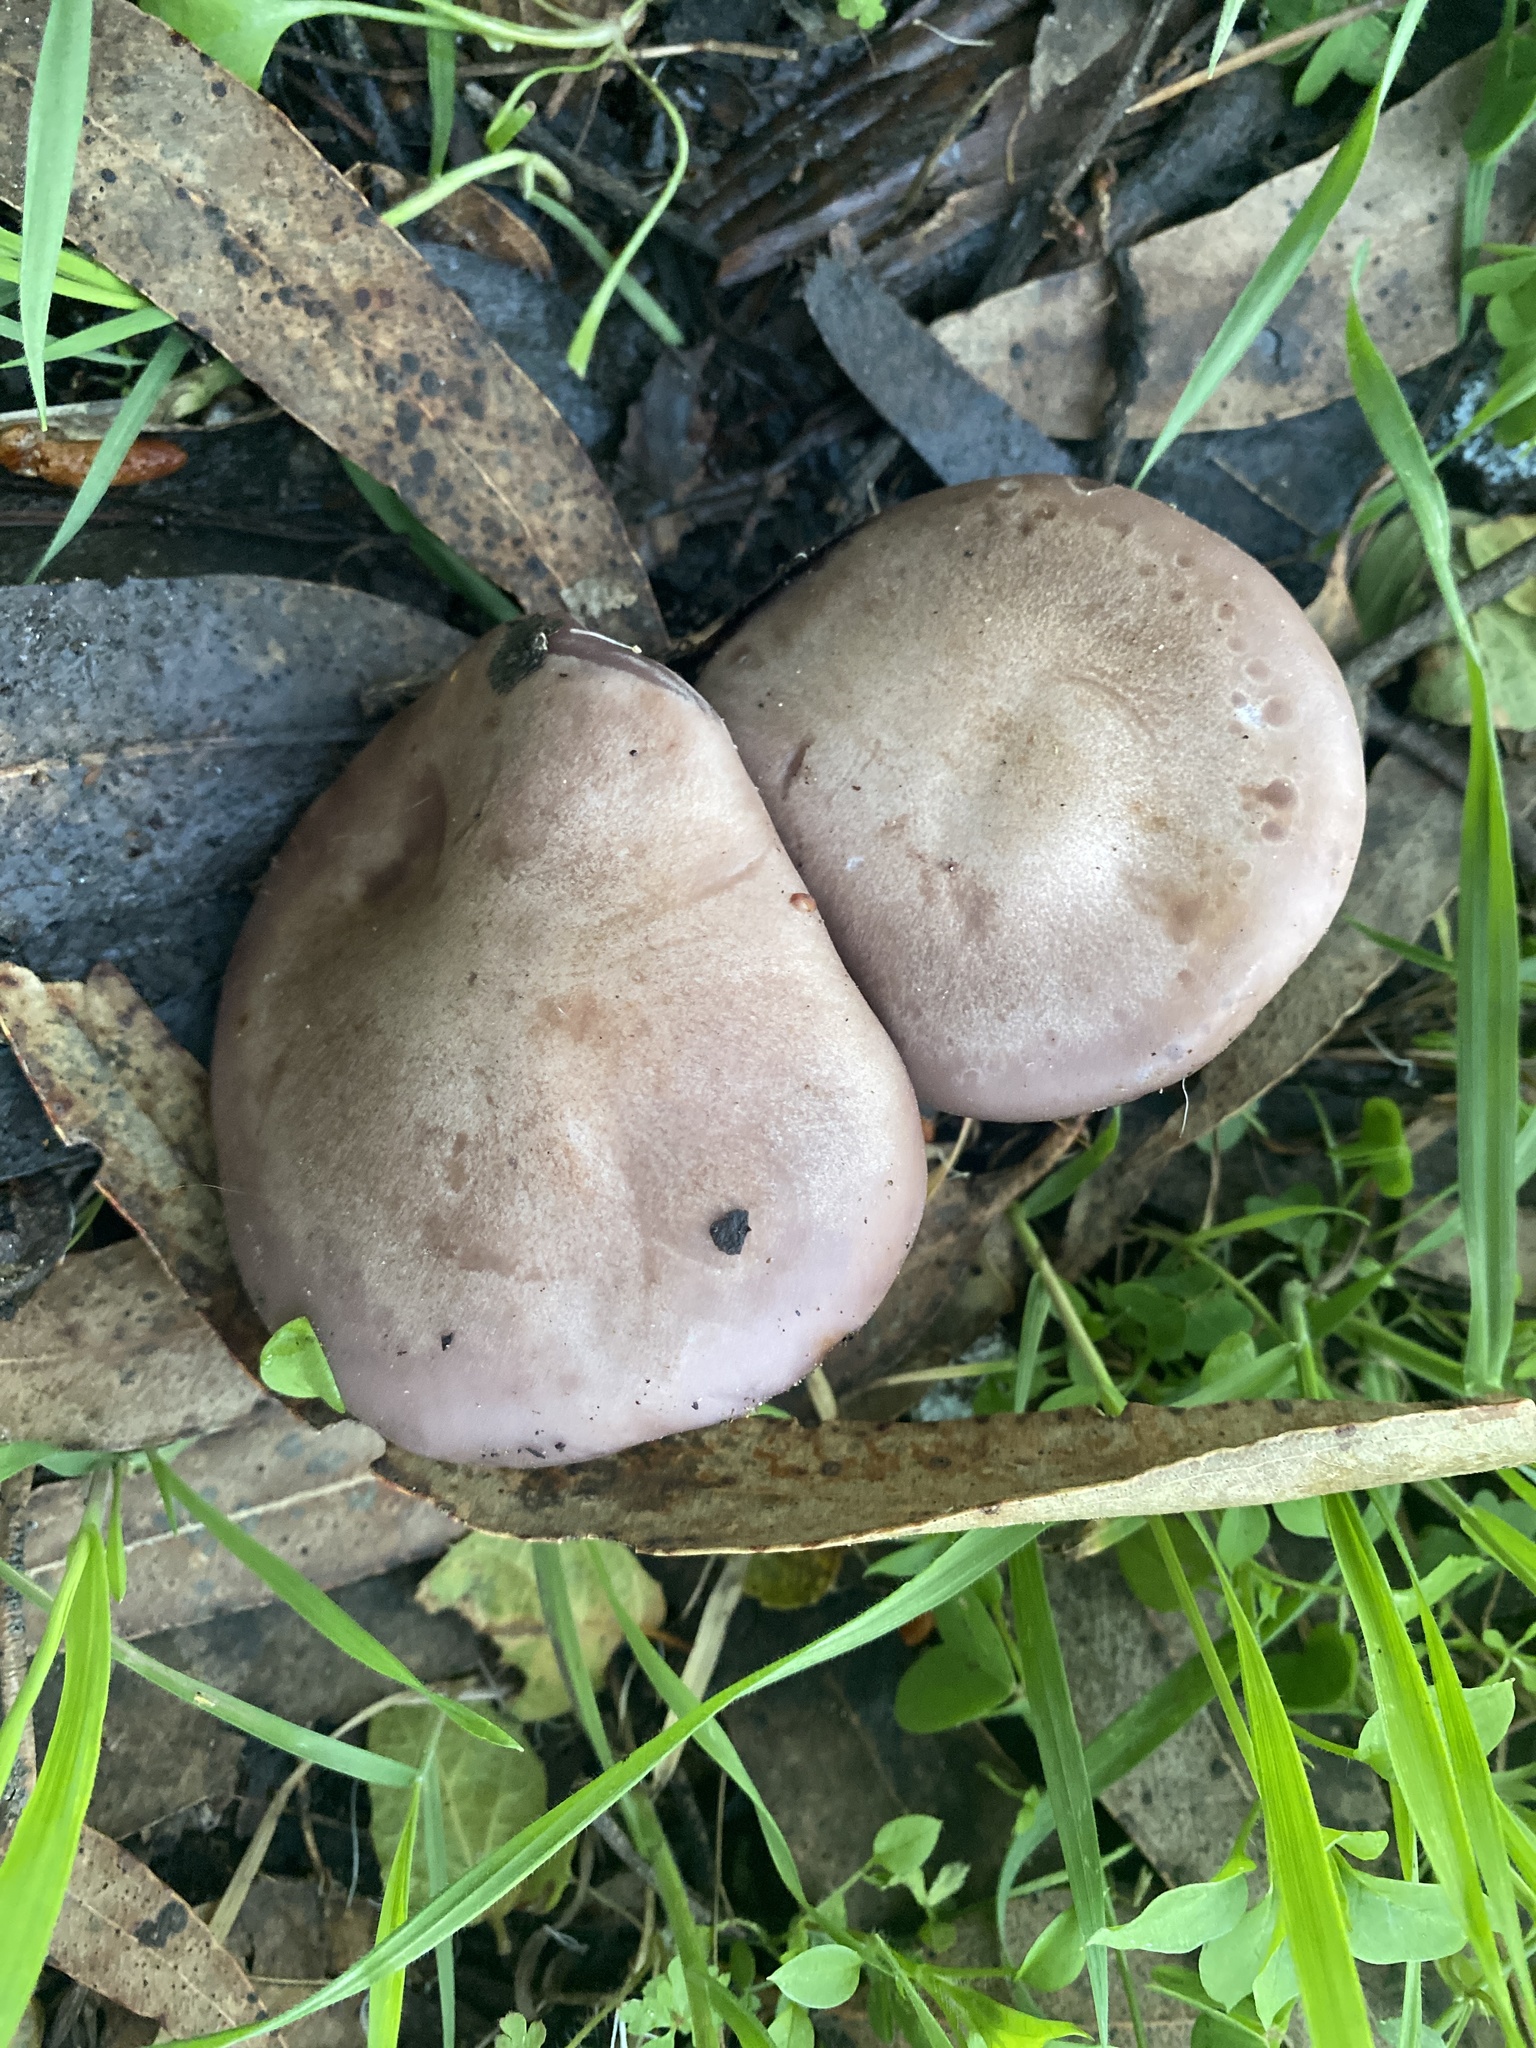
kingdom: Fungi
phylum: Basidiomycota
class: Agaricomycetes
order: Agaricales
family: Tricholomataceae
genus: Collybia
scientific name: Collybia
